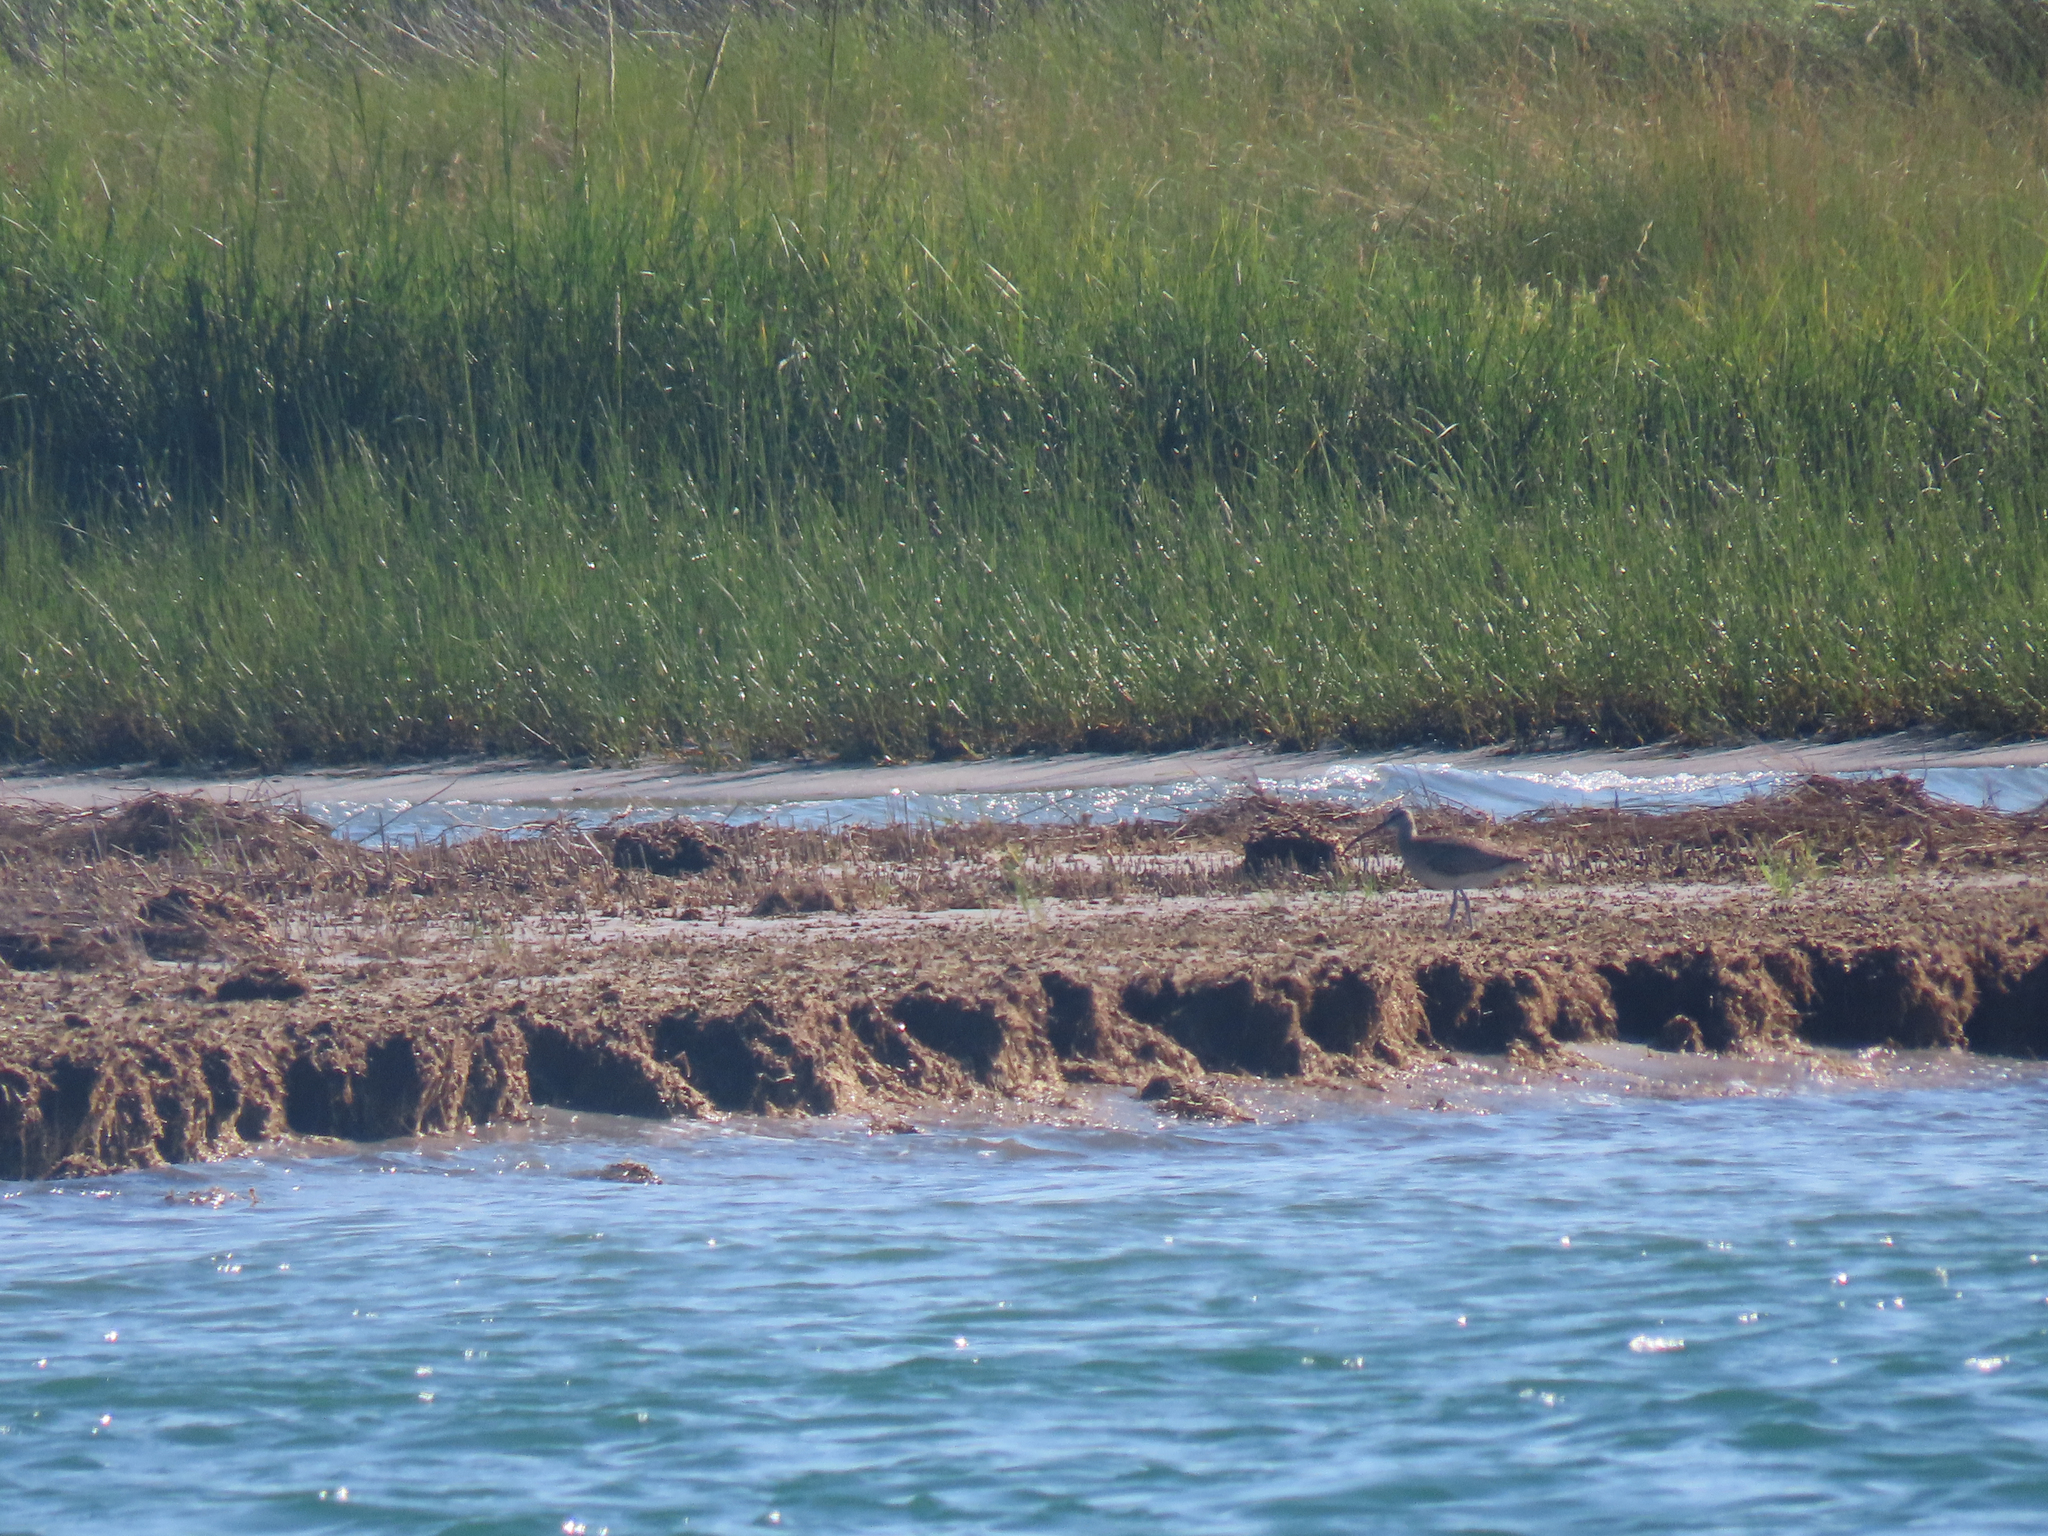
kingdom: Animalia
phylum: Chordata
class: Aves
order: Charadriiformes
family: Scolopacidae
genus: Numenius
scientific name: Numenius phaeopus
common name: Whimbrel
